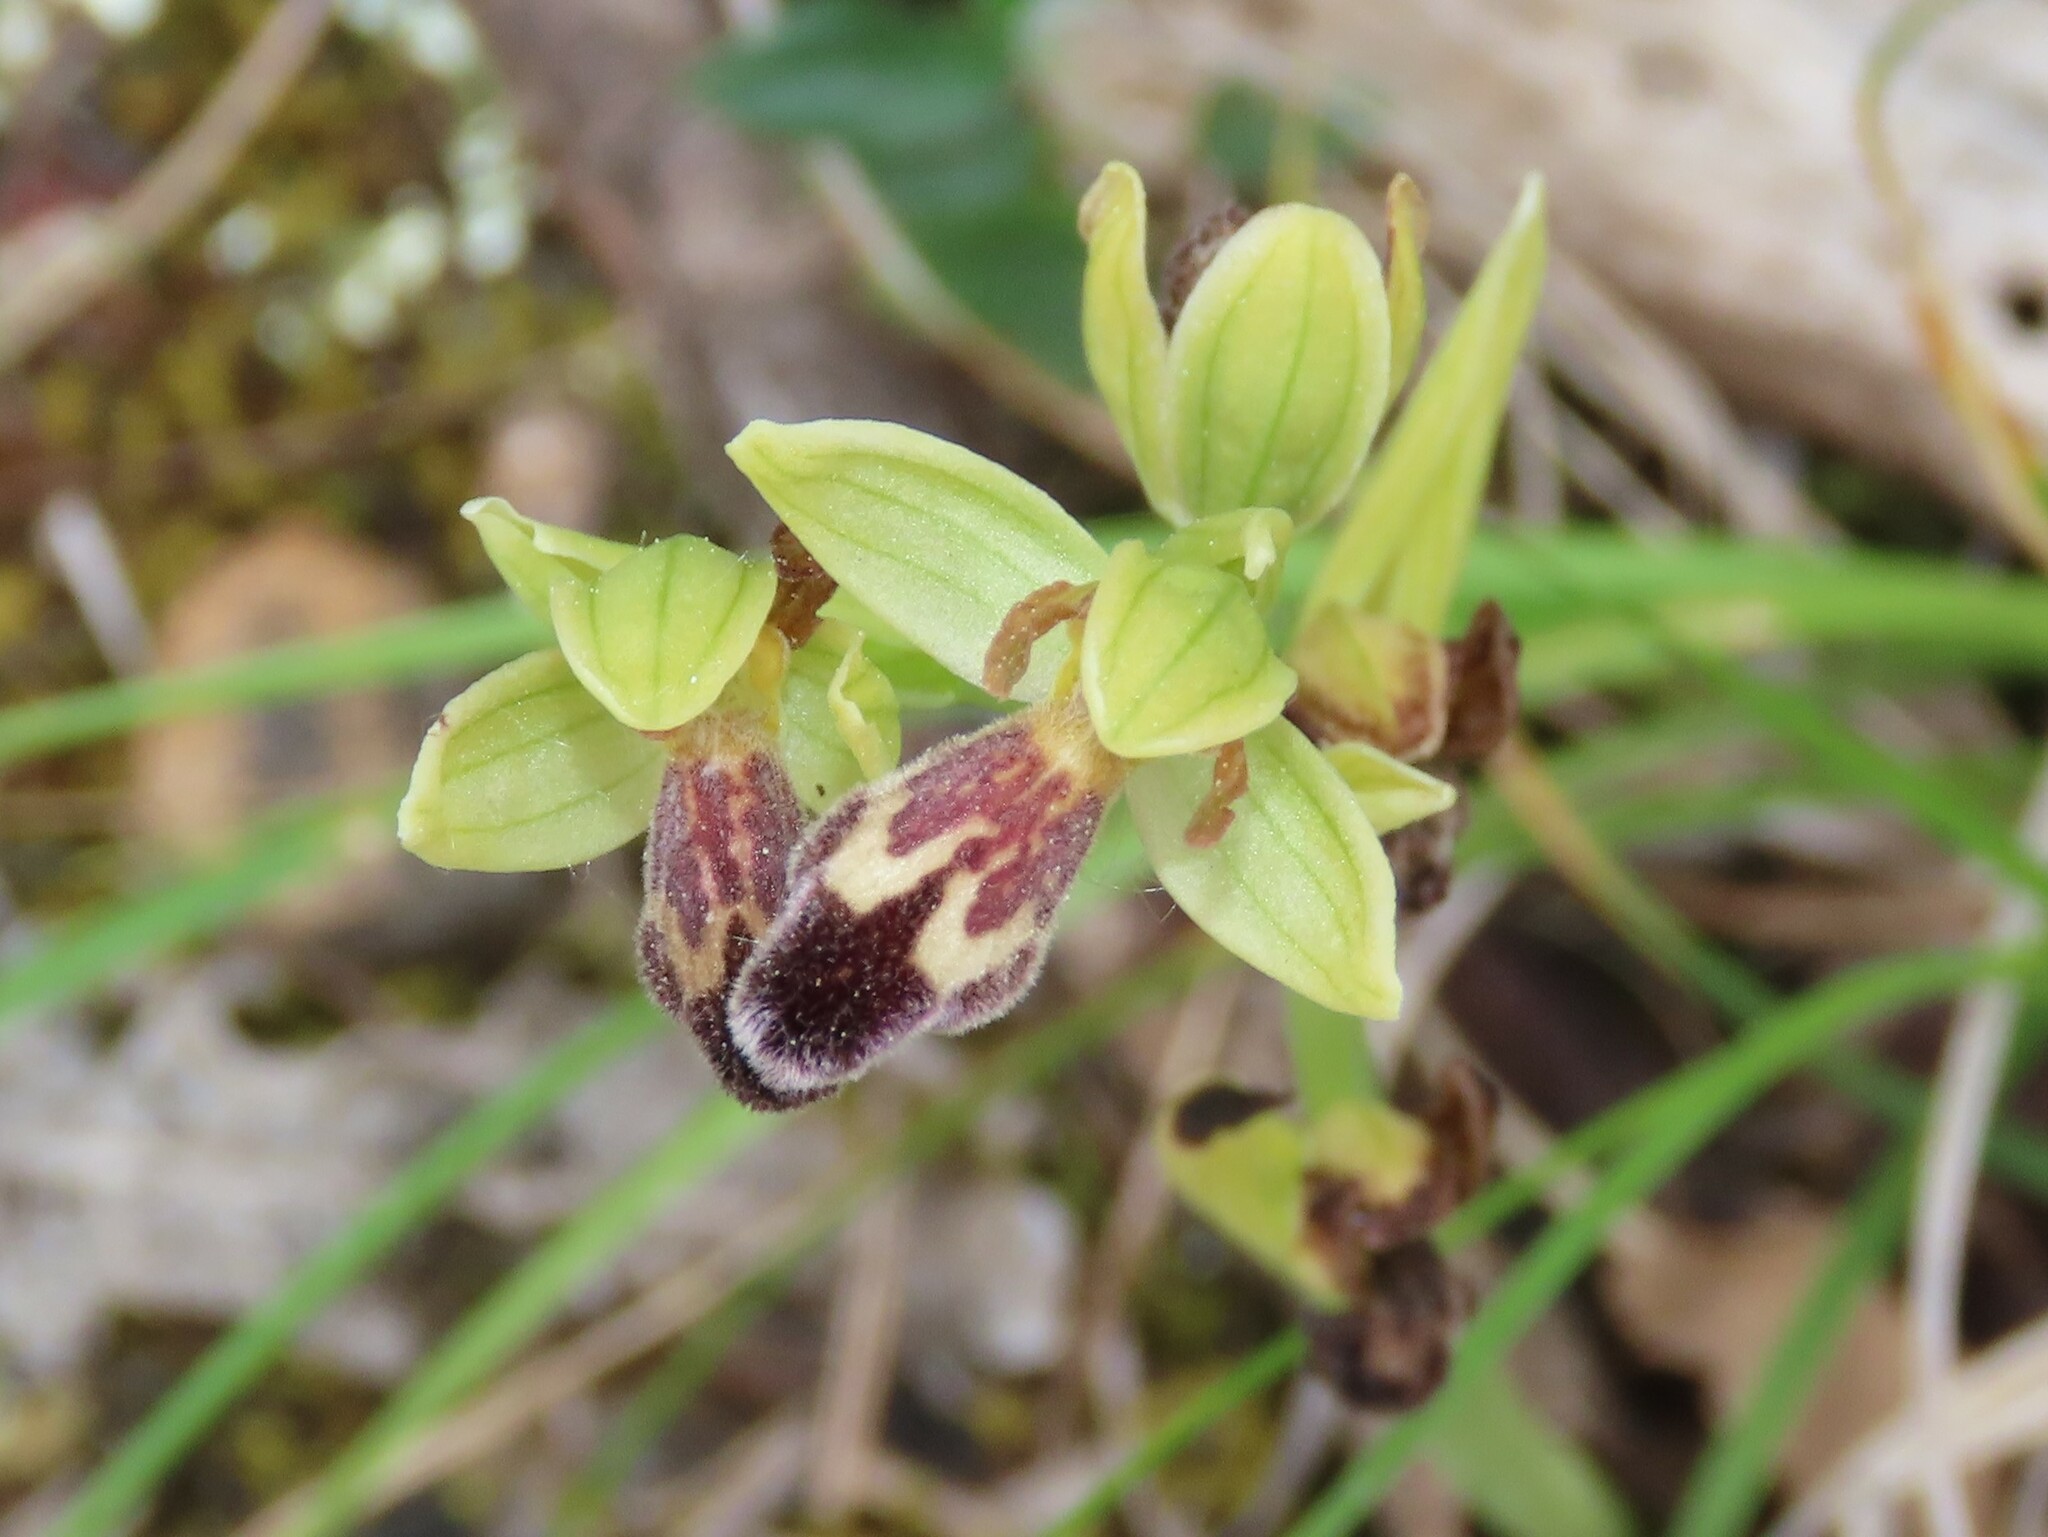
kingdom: Plantae
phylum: Tracheophyta
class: Liliopsida
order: Asparagales
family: Orchidaceae
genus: Ophrys
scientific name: Ophrys omegaifera
